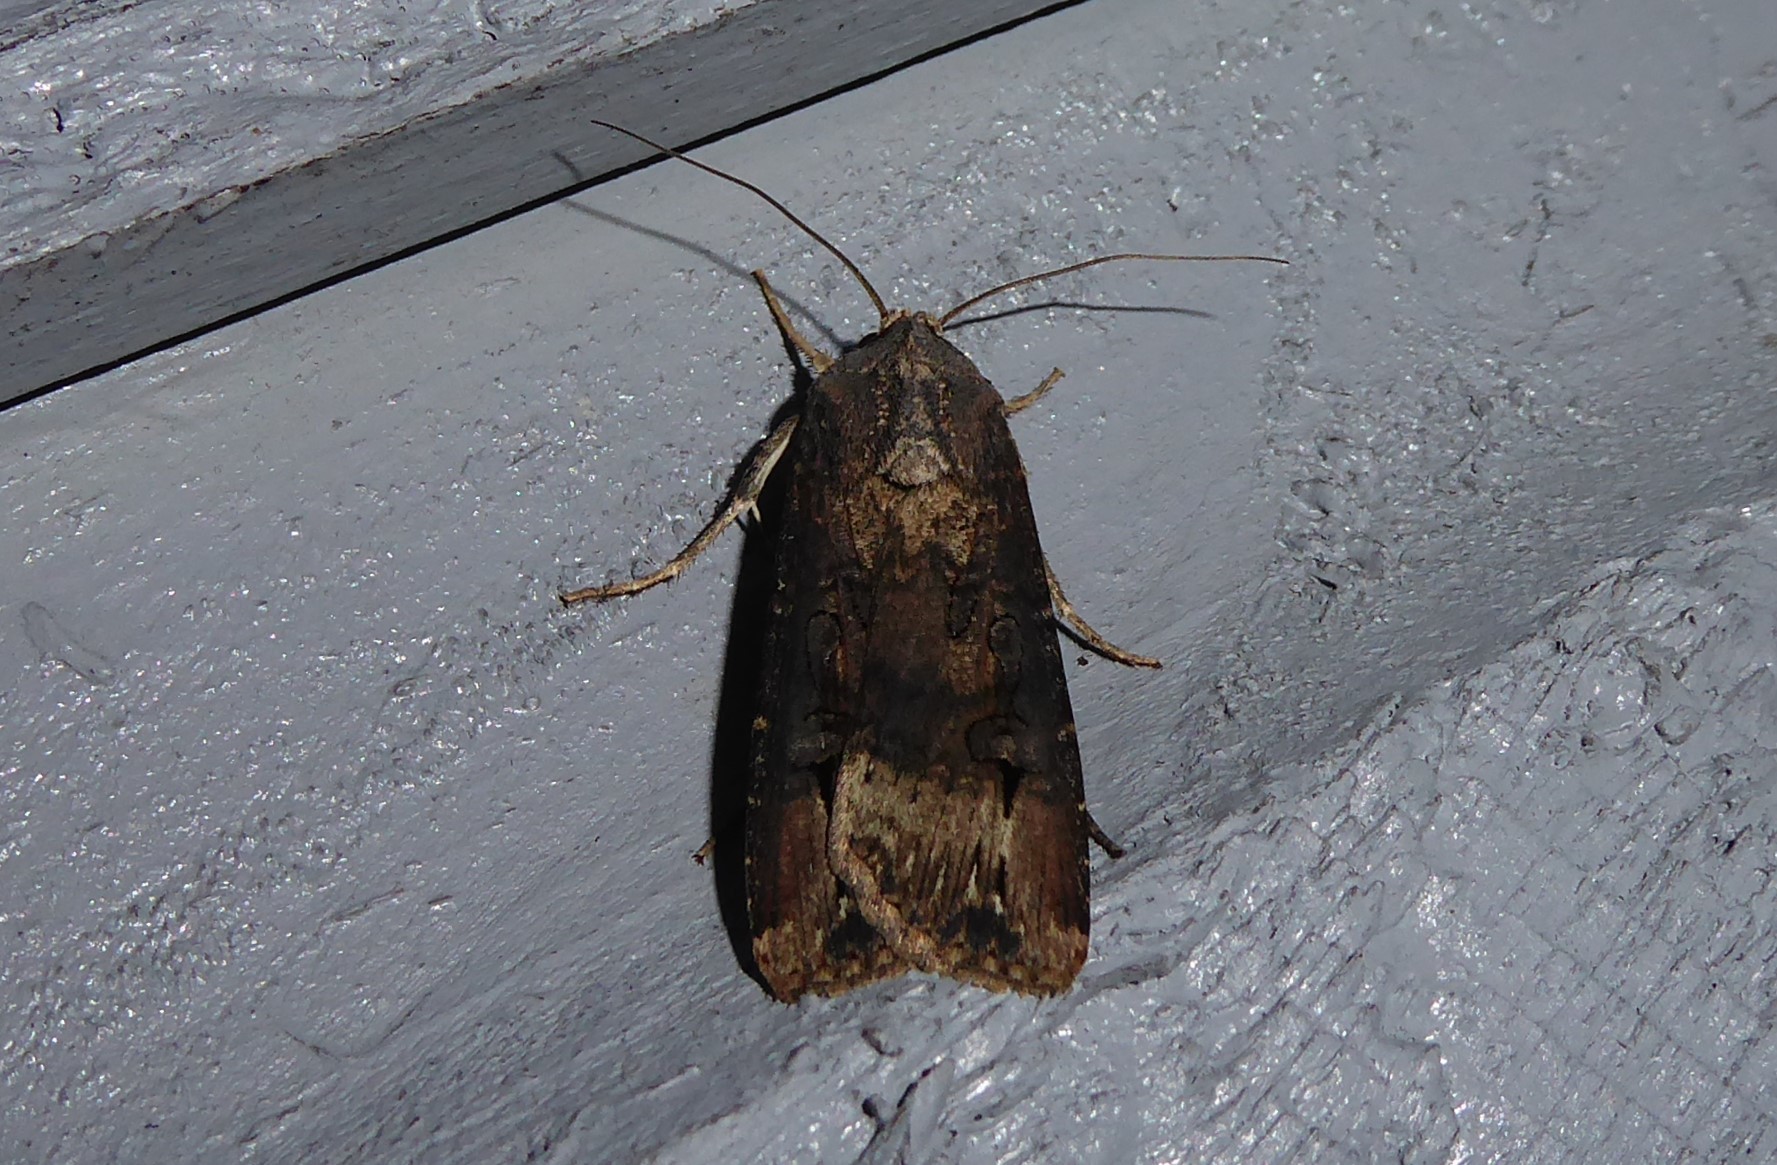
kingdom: Animalia
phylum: Arthropoda
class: Insecta
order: Lepidoptera
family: Noctuidae
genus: Agrotis
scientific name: Agrotis ipsilon
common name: Dark sword-grass
